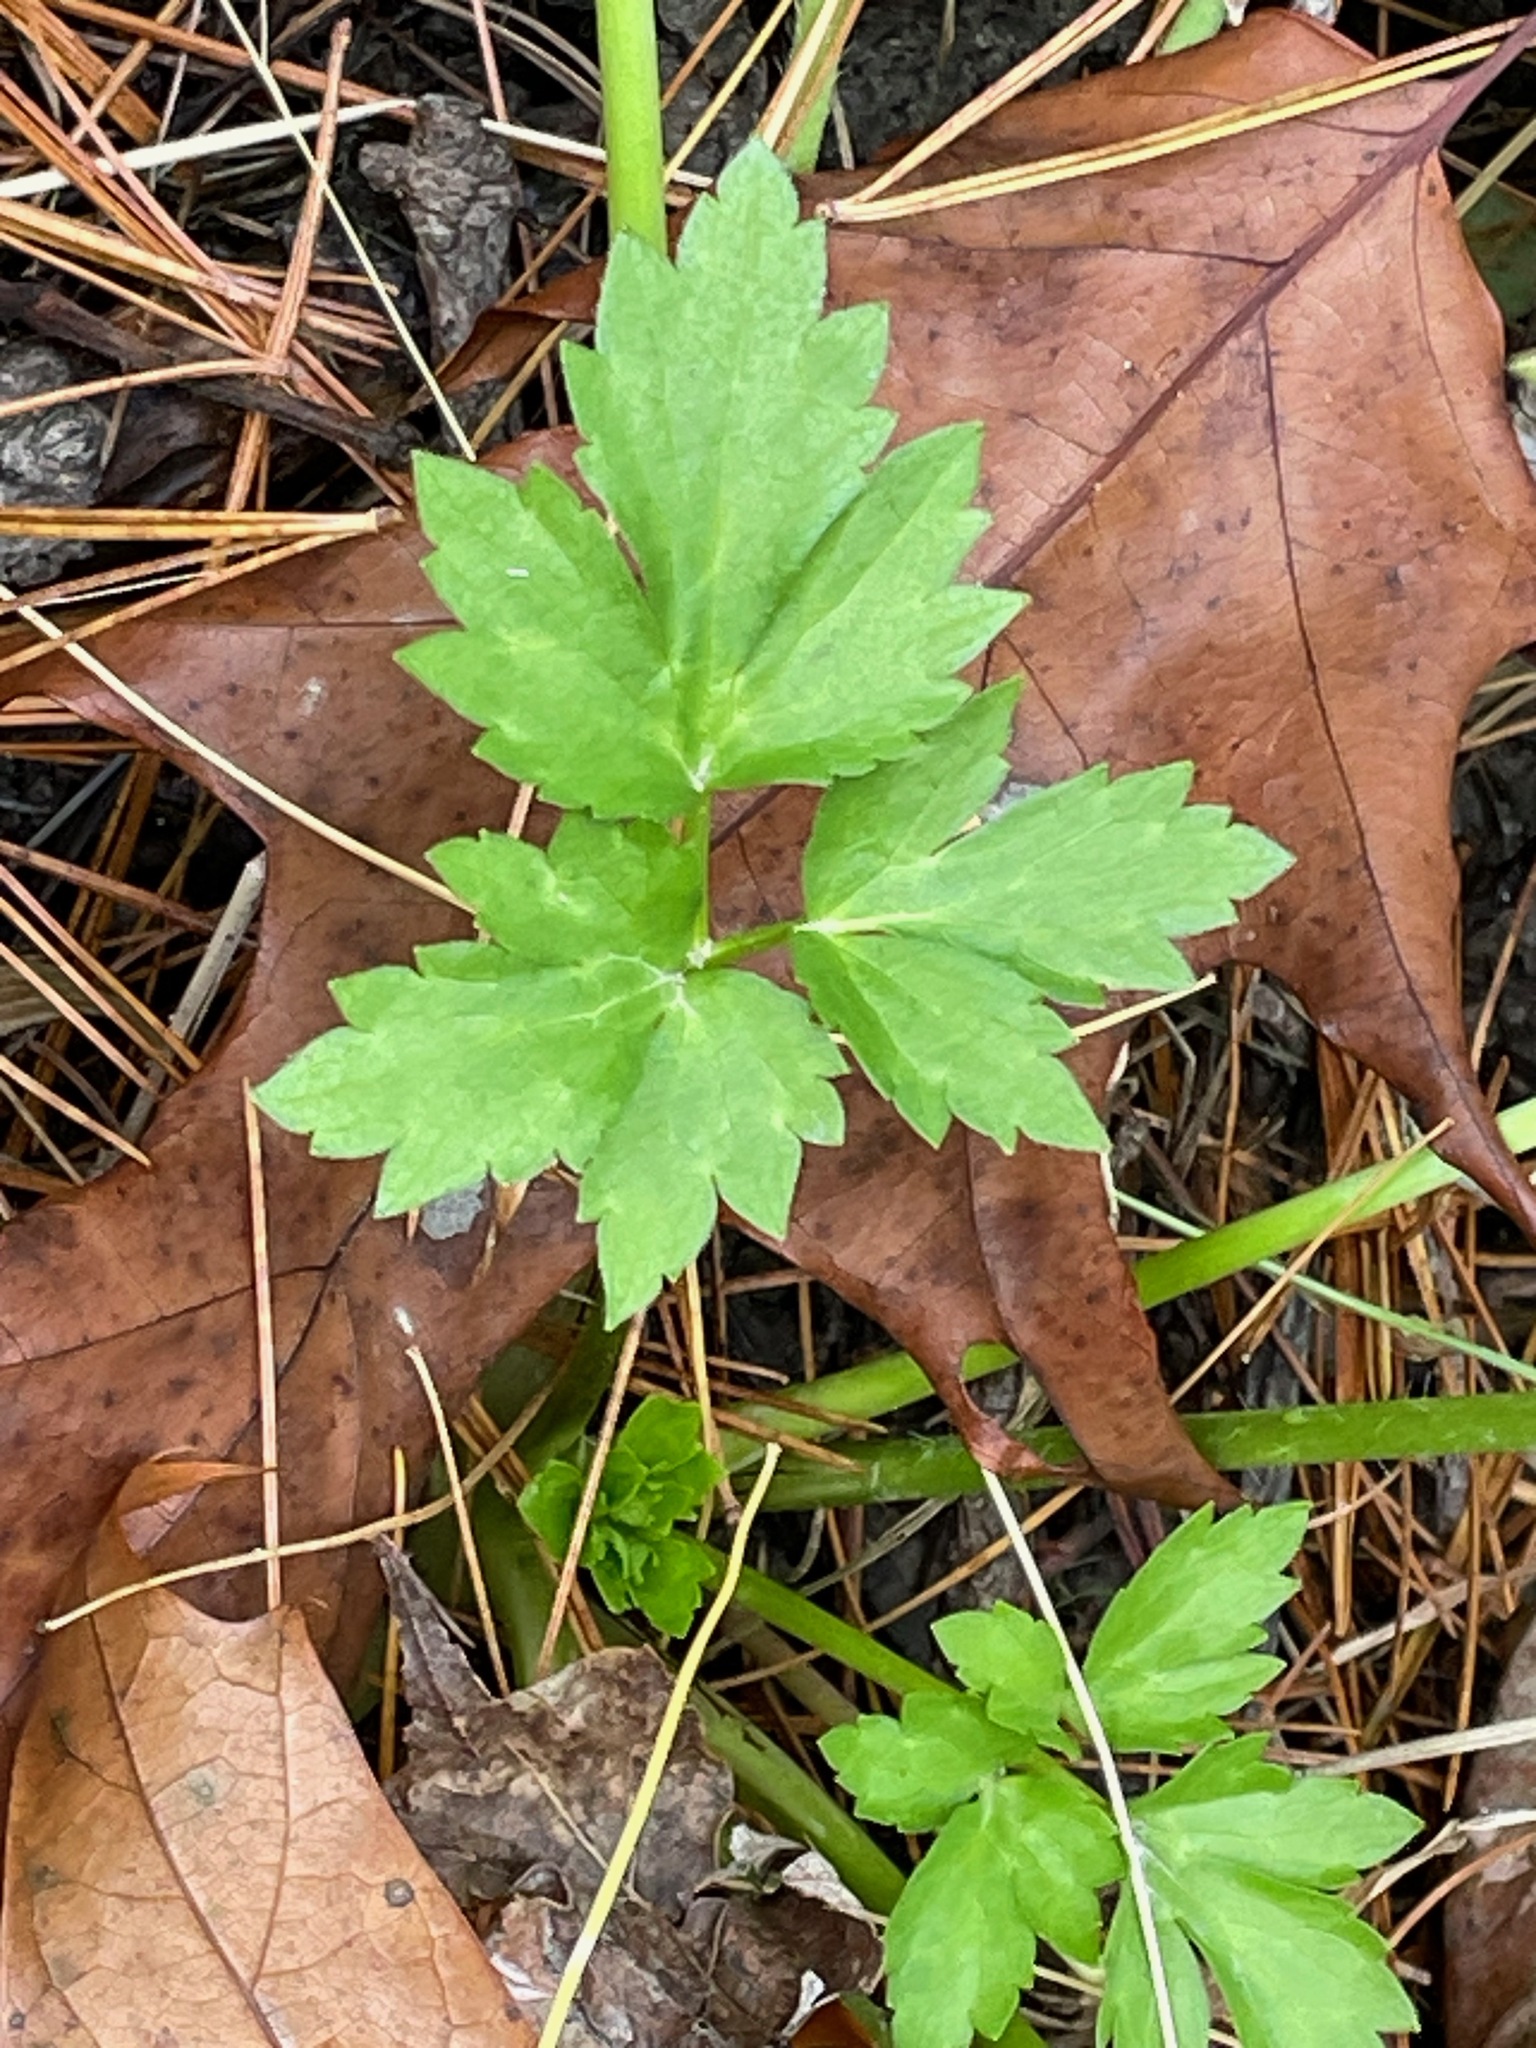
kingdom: Plantae
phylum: Tracheophyta
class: Magnoliopsida
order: Ranunculales
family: Ranunculaceae
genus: Ranunculus
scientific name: Ranunculus hispidus
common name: Bristly buttercup
